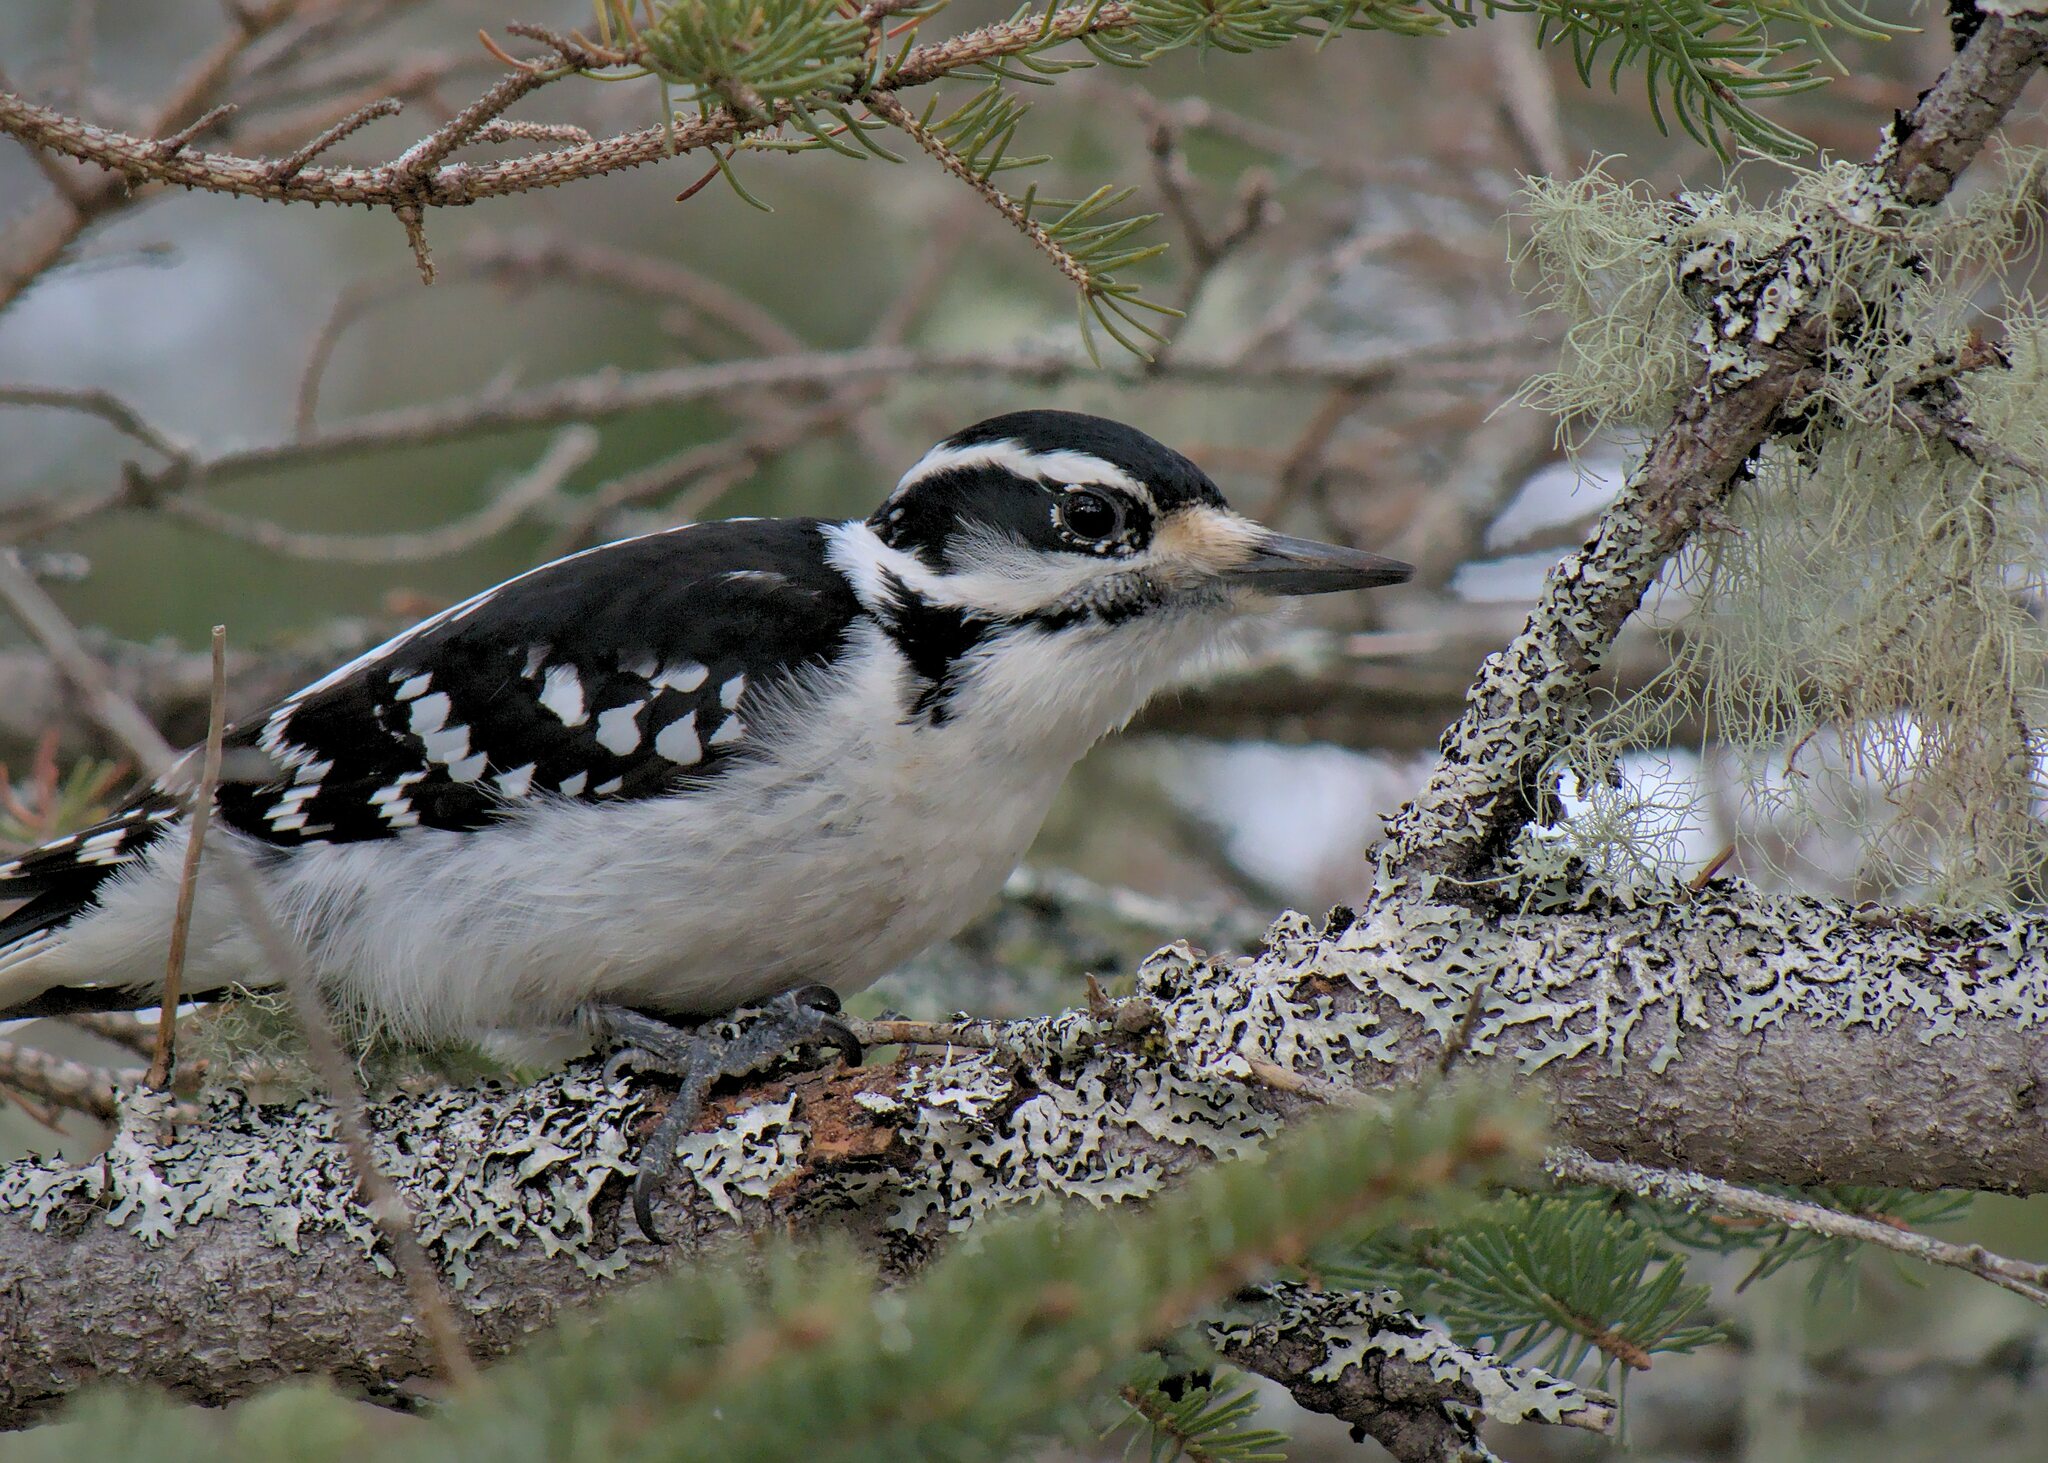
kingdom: Animalia
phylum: Chordata
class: Aves
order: Piciformes
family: Picidae
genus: Leuconotopicus
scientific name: Leuconotopicus villosus
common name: Hairy woodpecker
